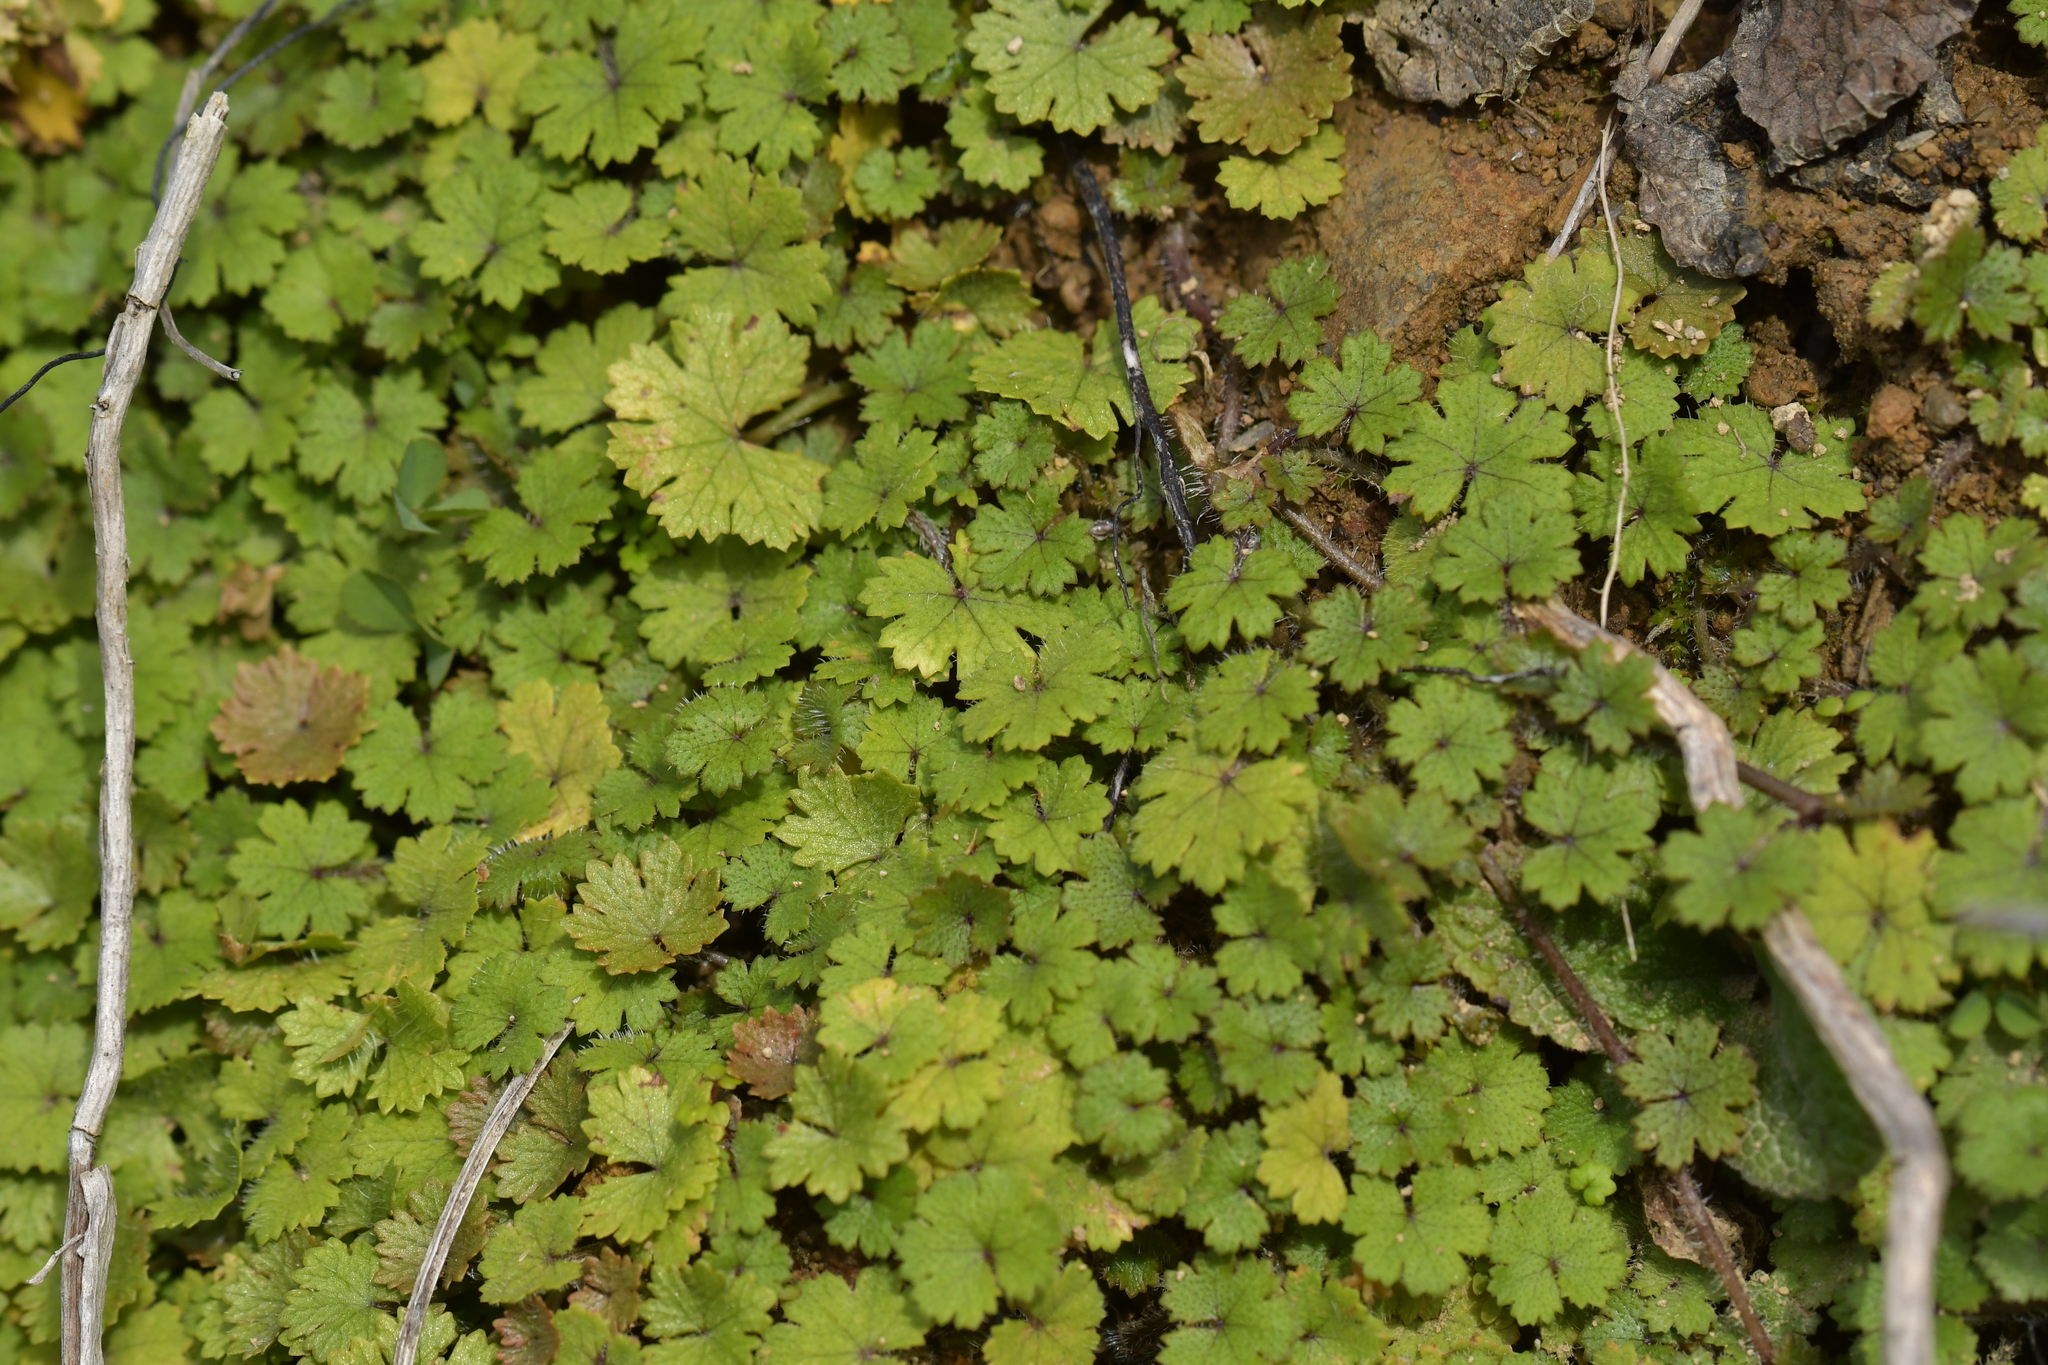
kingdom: Plantae
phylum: Tracheophyta
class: Magnoliopsida
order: Apiales
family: Araliaceae
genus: Hydrocotyle
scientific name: Hydrocotyle moschata
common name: Hairy pennywort
